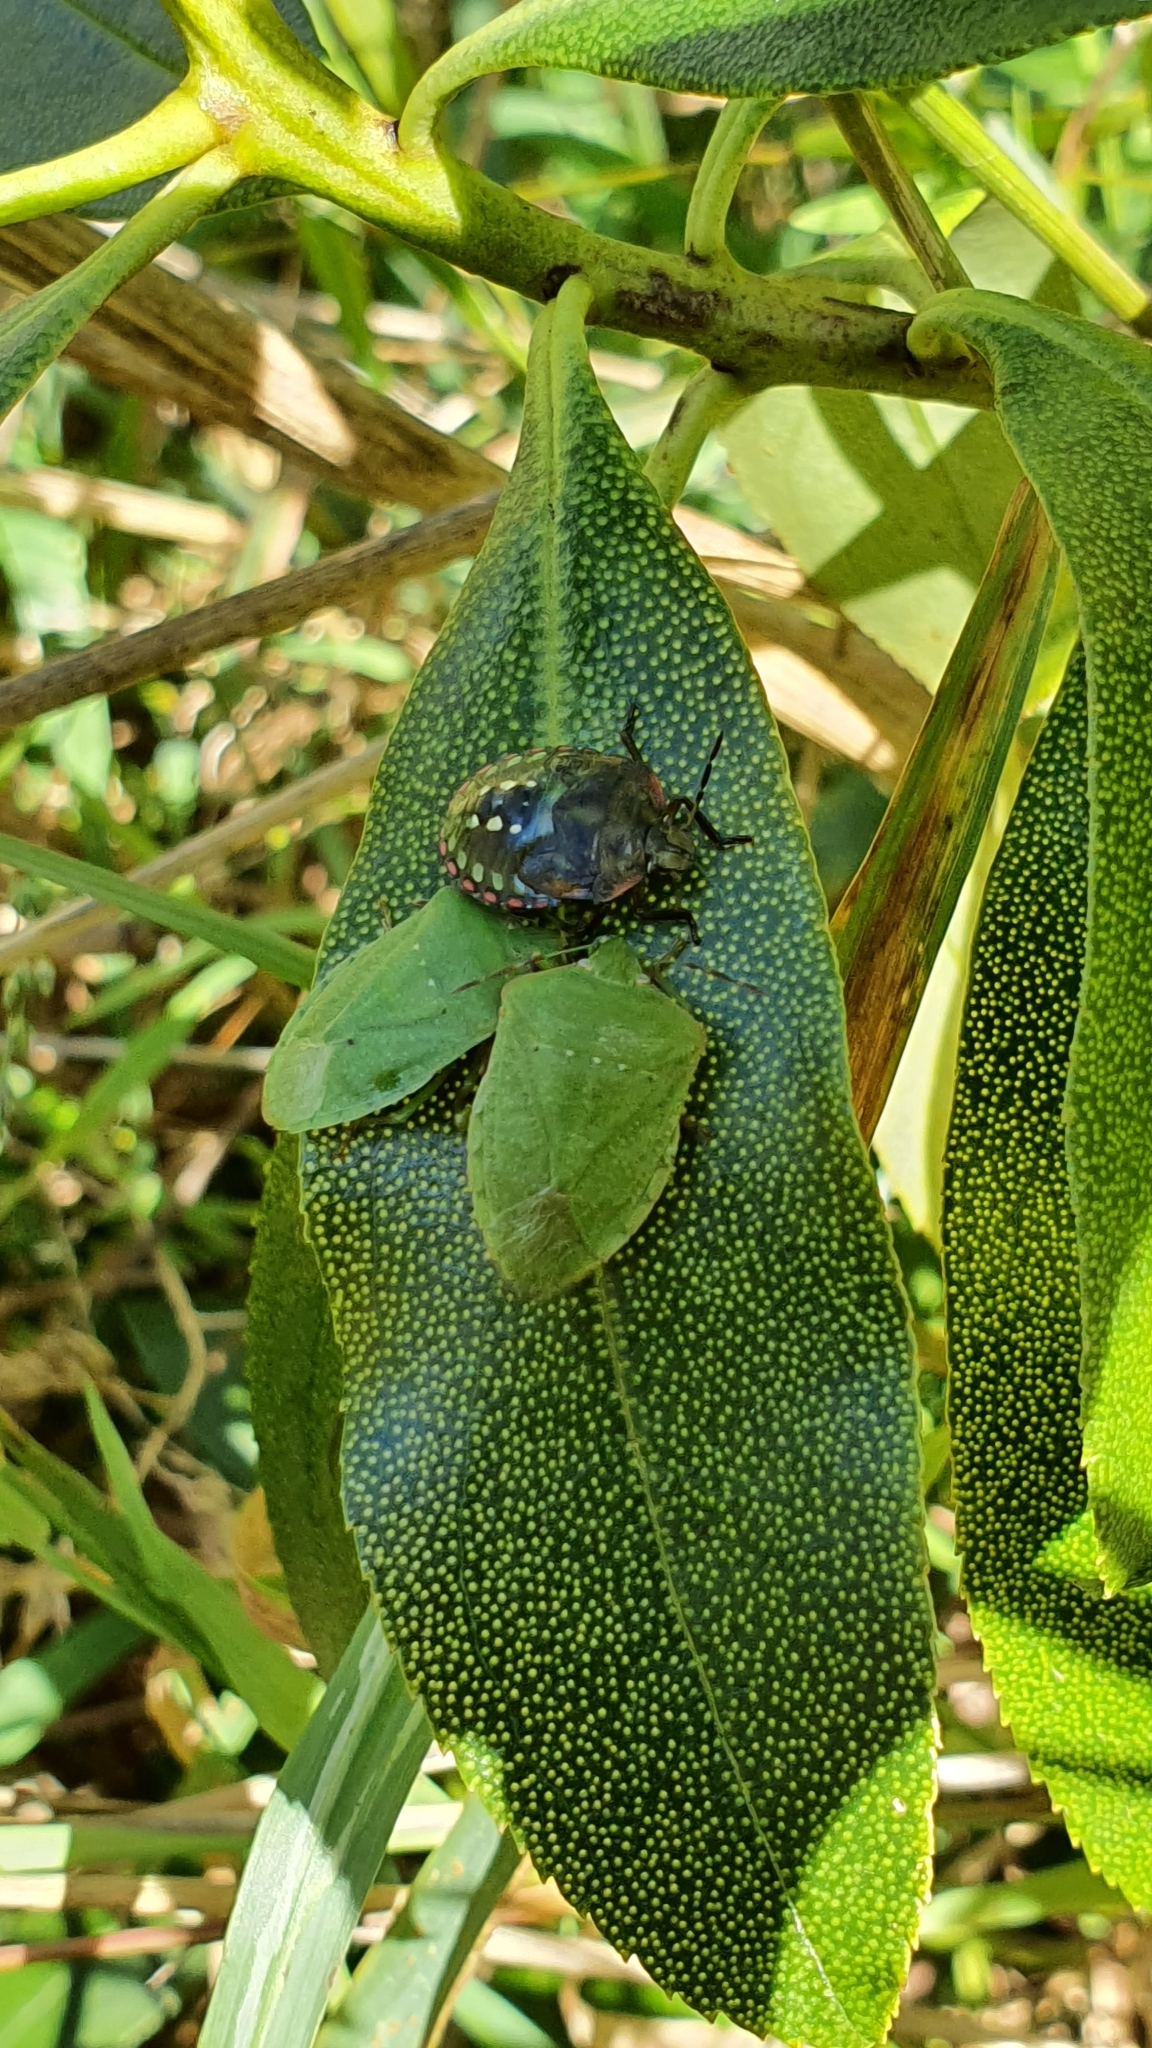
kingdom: Animalia
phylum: Arthropoda
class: Insecta
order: Hemiptera
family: Pentatomidae
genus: Nezara
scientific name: Nezara viridula
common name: Southern green stink bug
